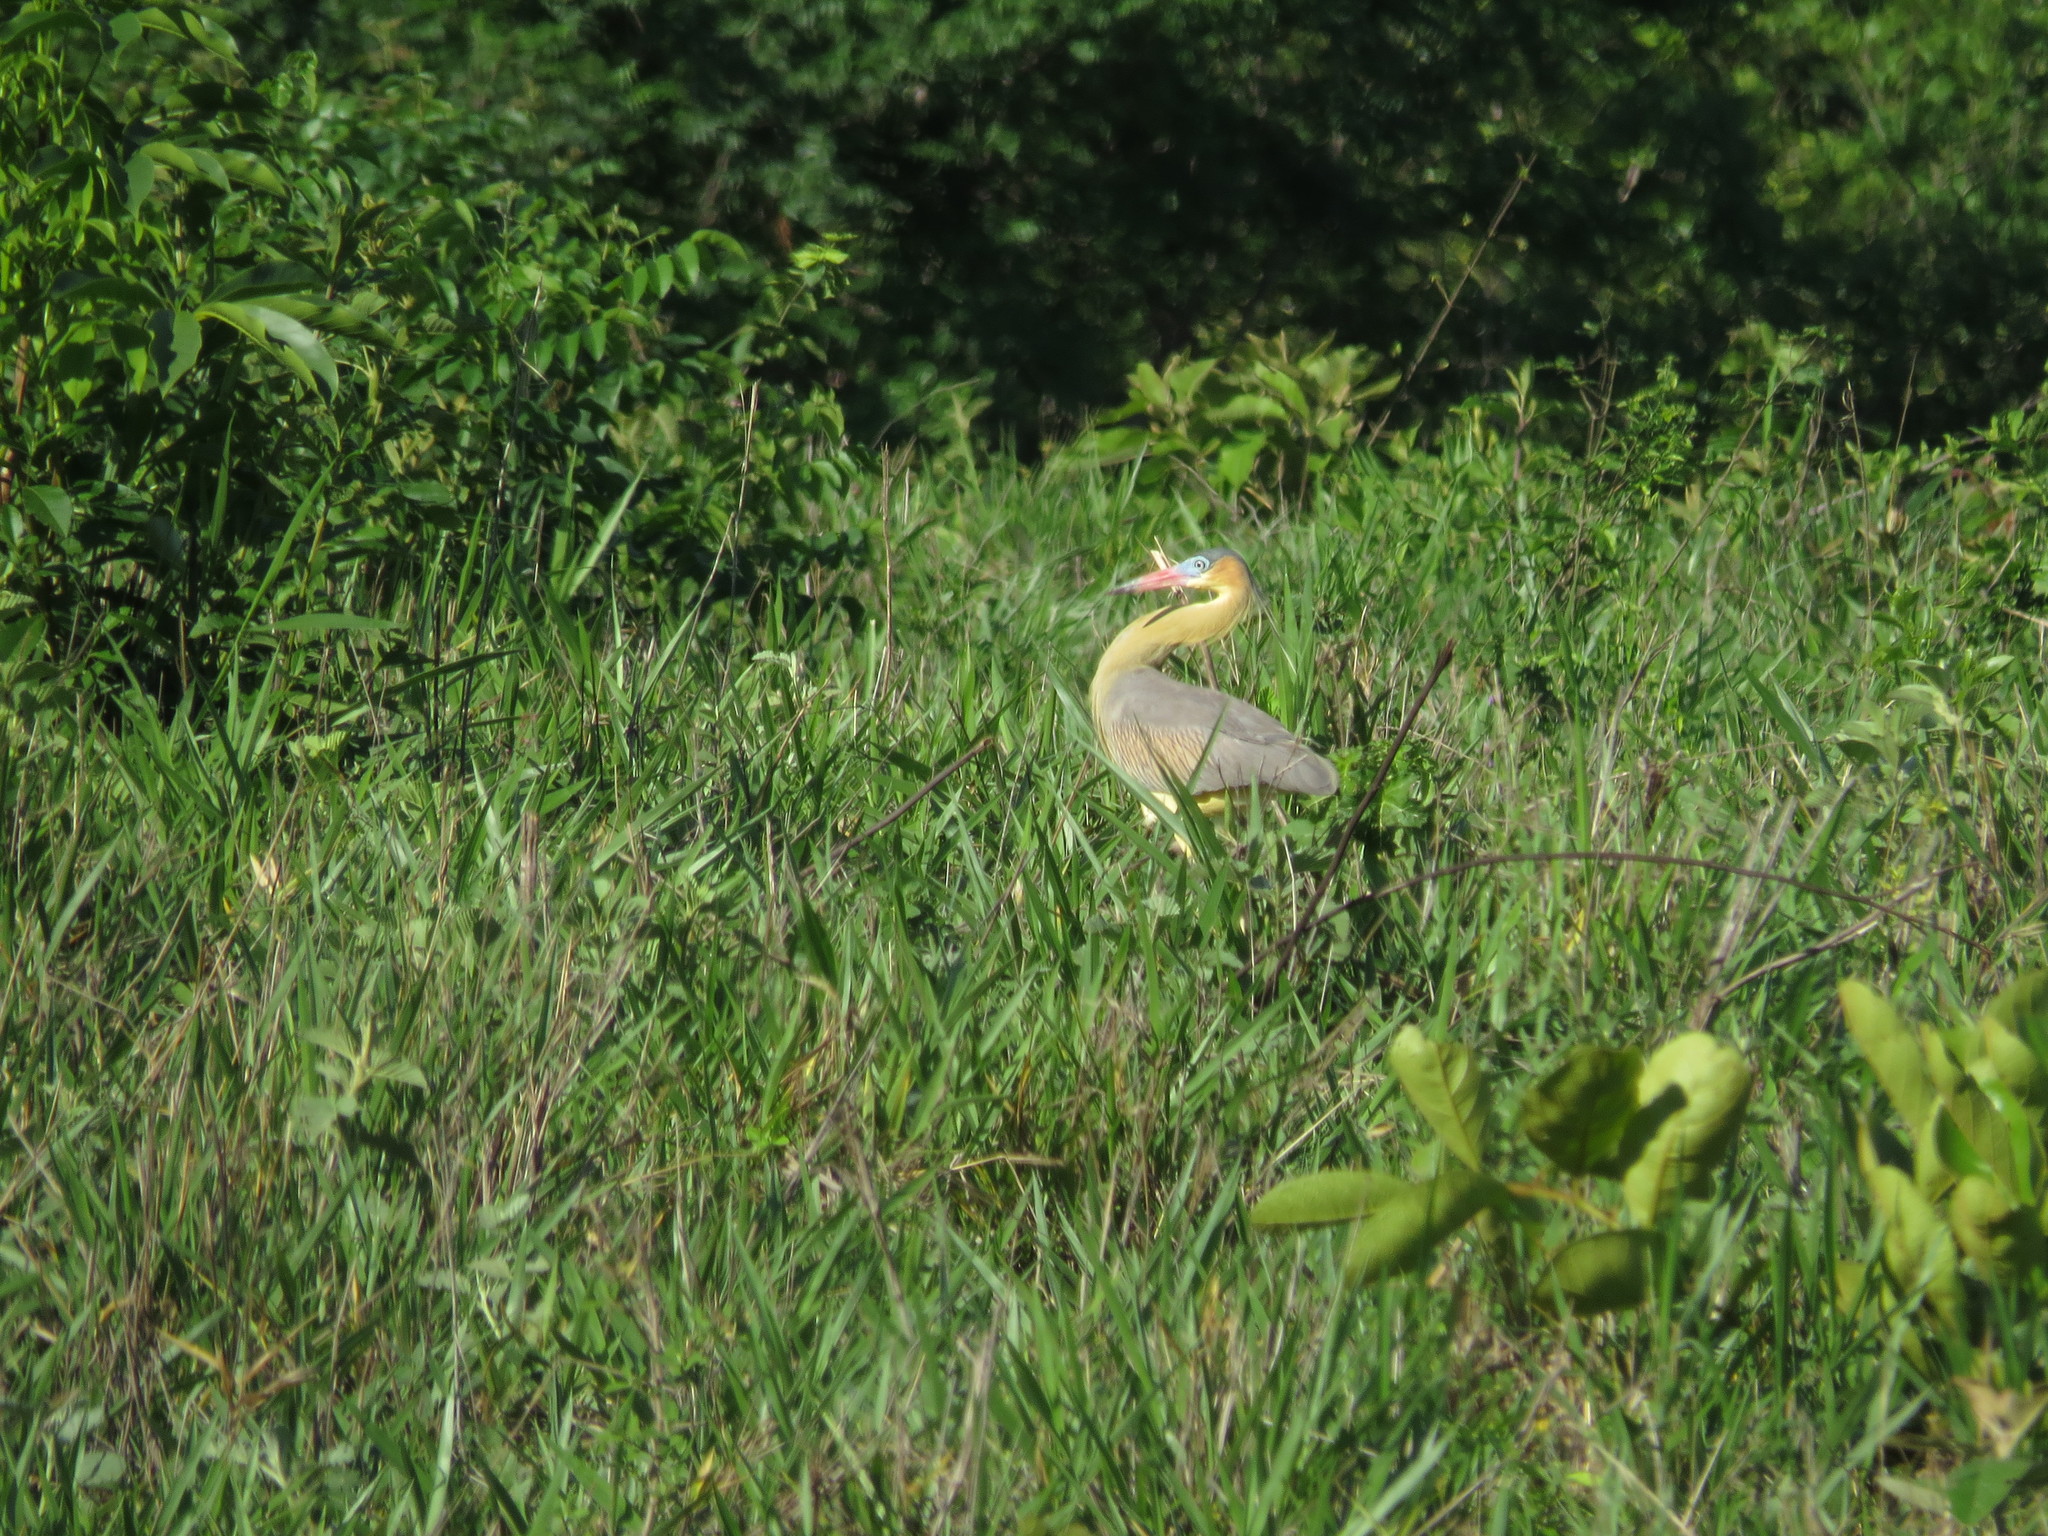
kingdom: Animalia
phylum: Chordata
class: Aves
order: Pelecaniformes
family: Ardeidae
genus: Syrigma
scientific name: Syrigma sibilatrix
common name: Whistling heron
